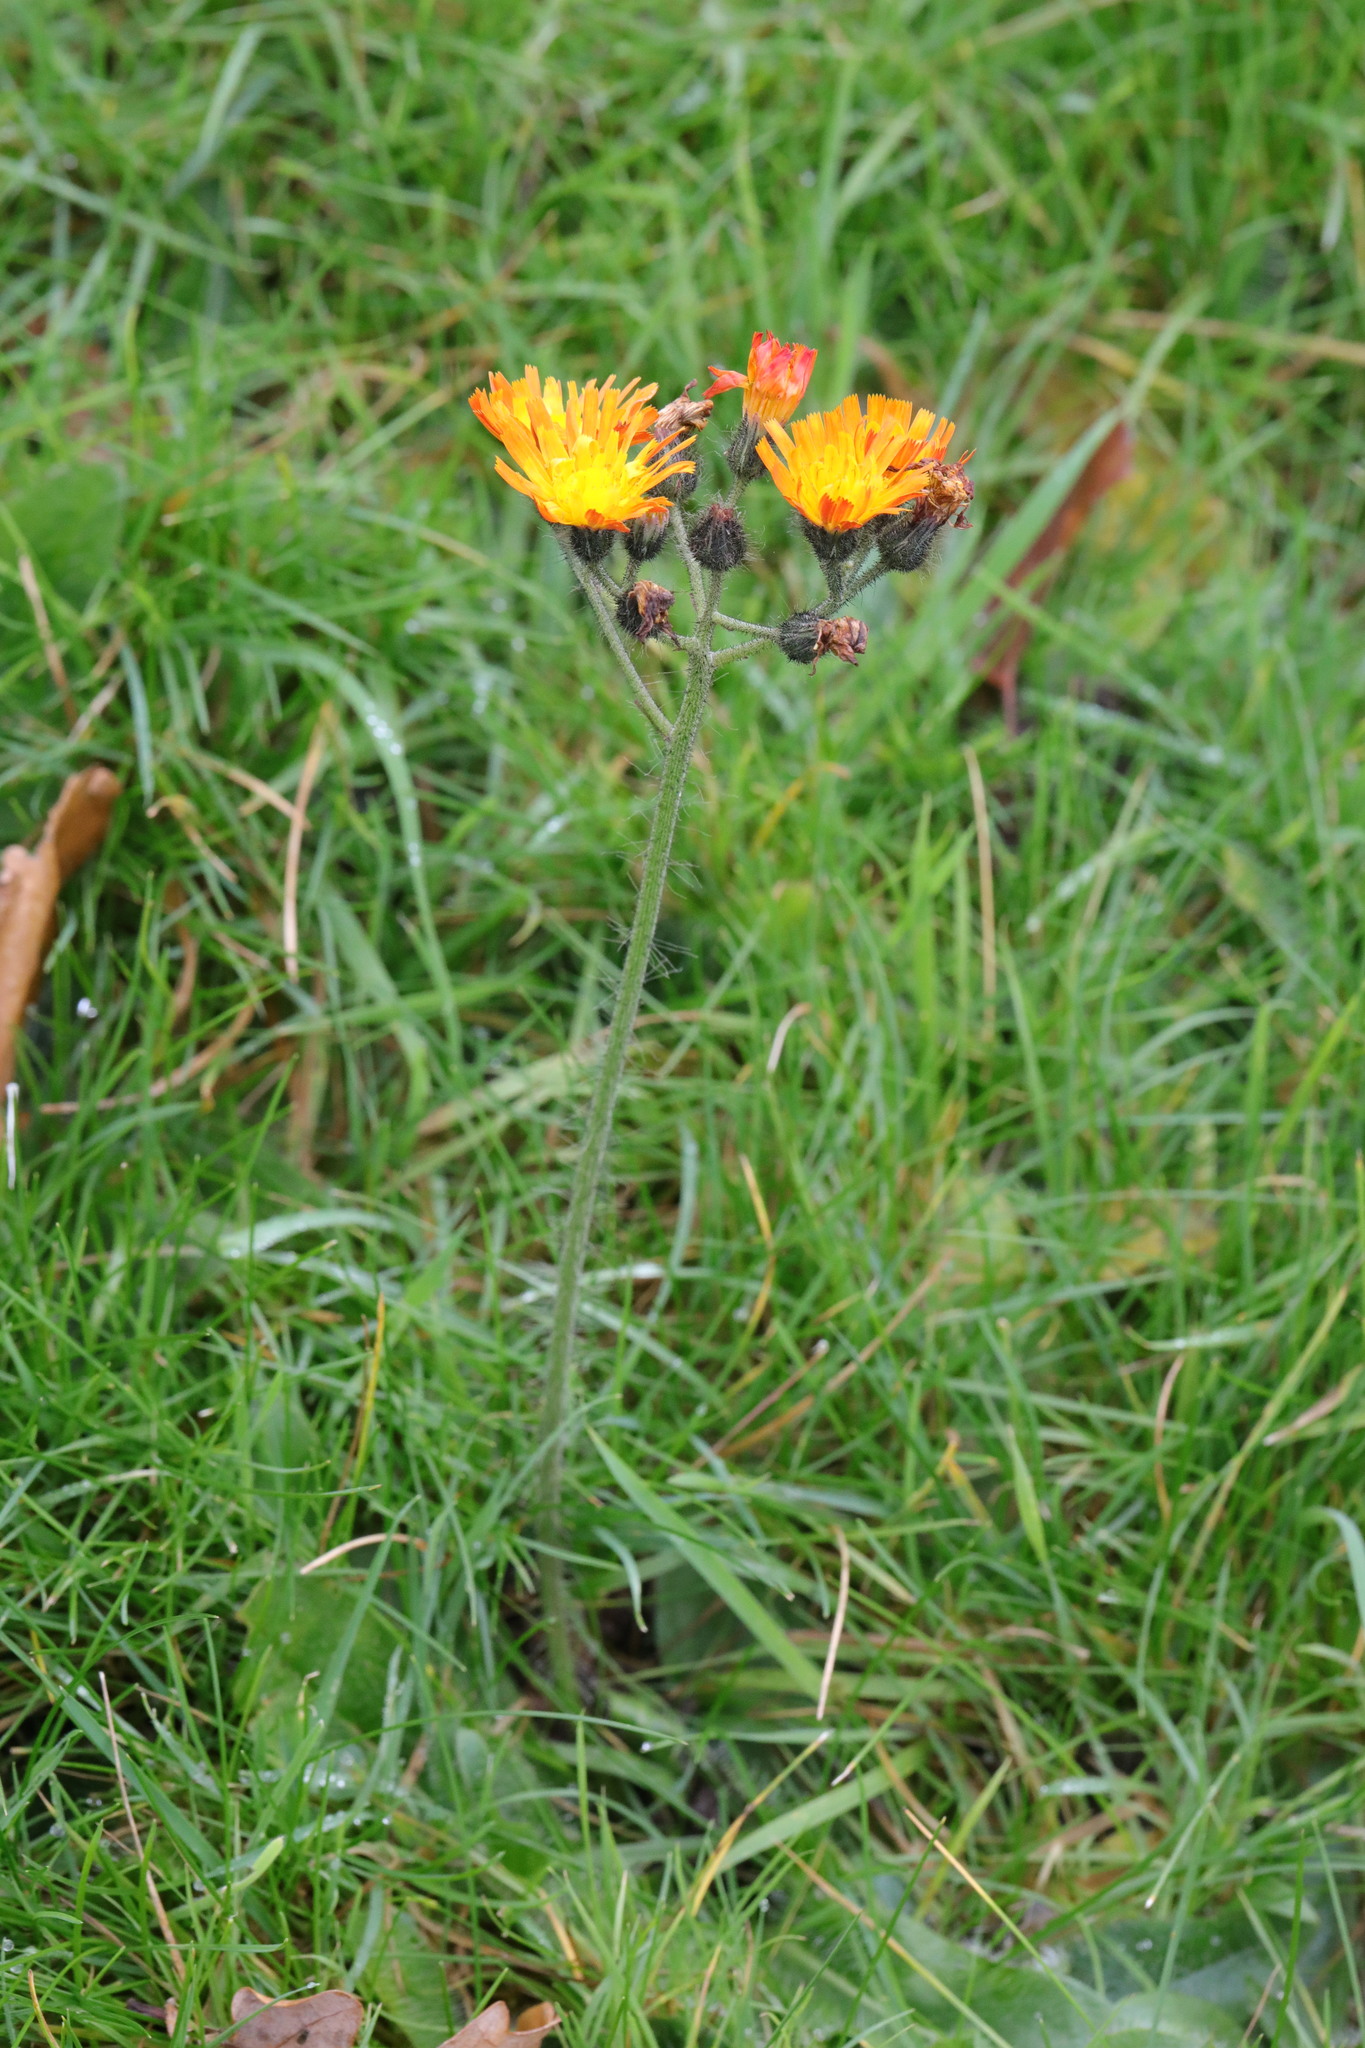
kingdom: Plantae
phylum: Tracheophyta
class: Magnoliopsida
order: Asterales
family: Asteraceae
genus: Pilosella
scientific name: Pilosella aurantiaca
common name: Fox-and-cubs
